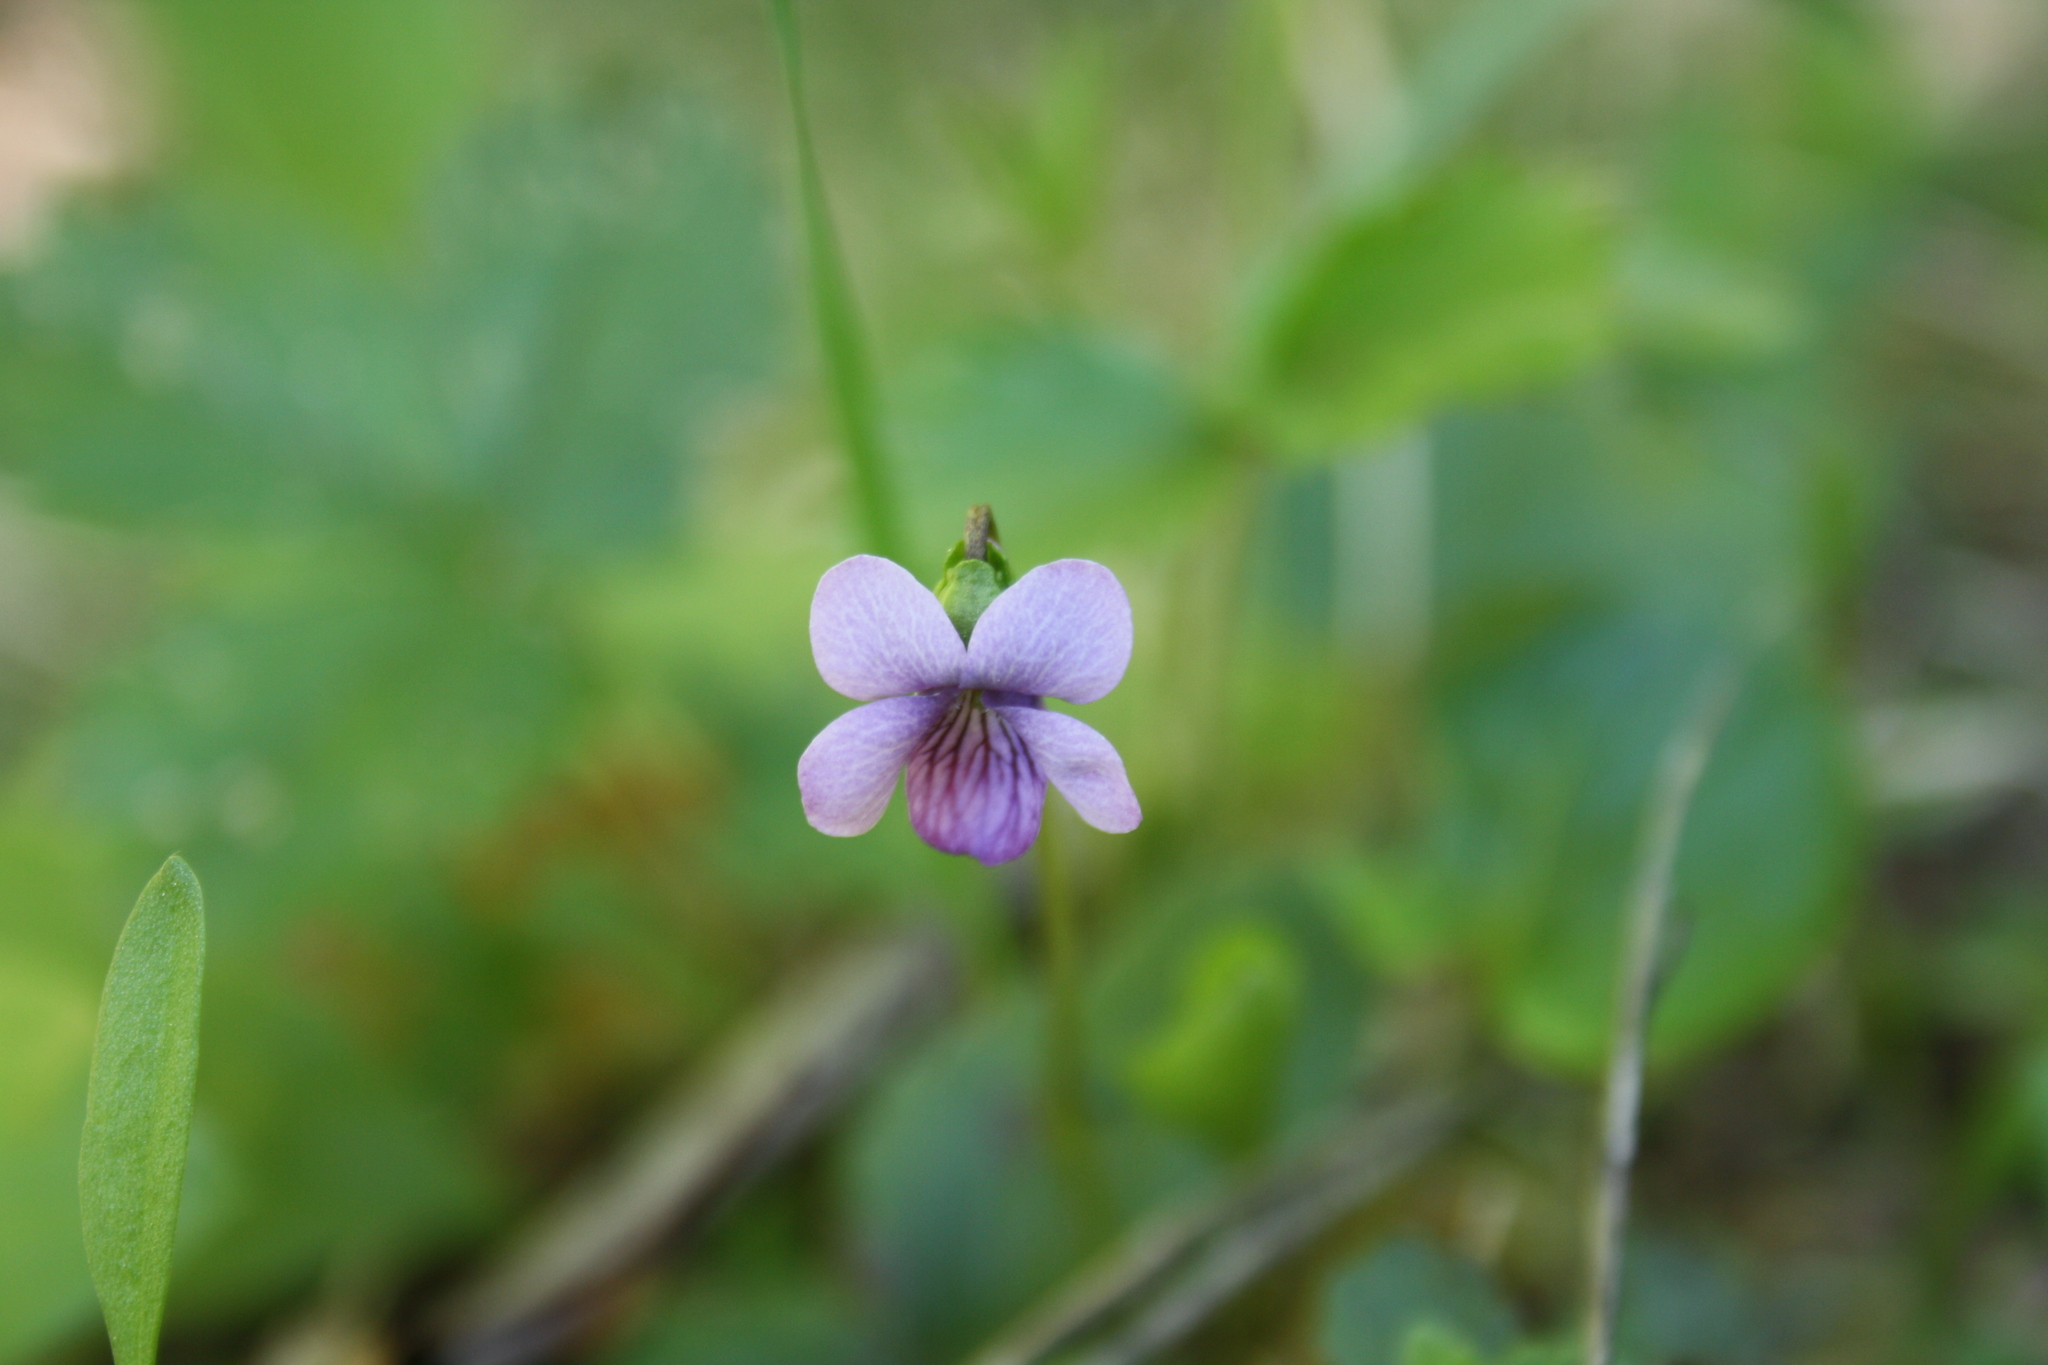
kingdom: Plantae
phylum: Tracheophyta
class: Magnoliopsida
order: Malpighiales
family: Violaceae
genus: Viola
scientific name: Viola palustris
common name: Marsh violet
